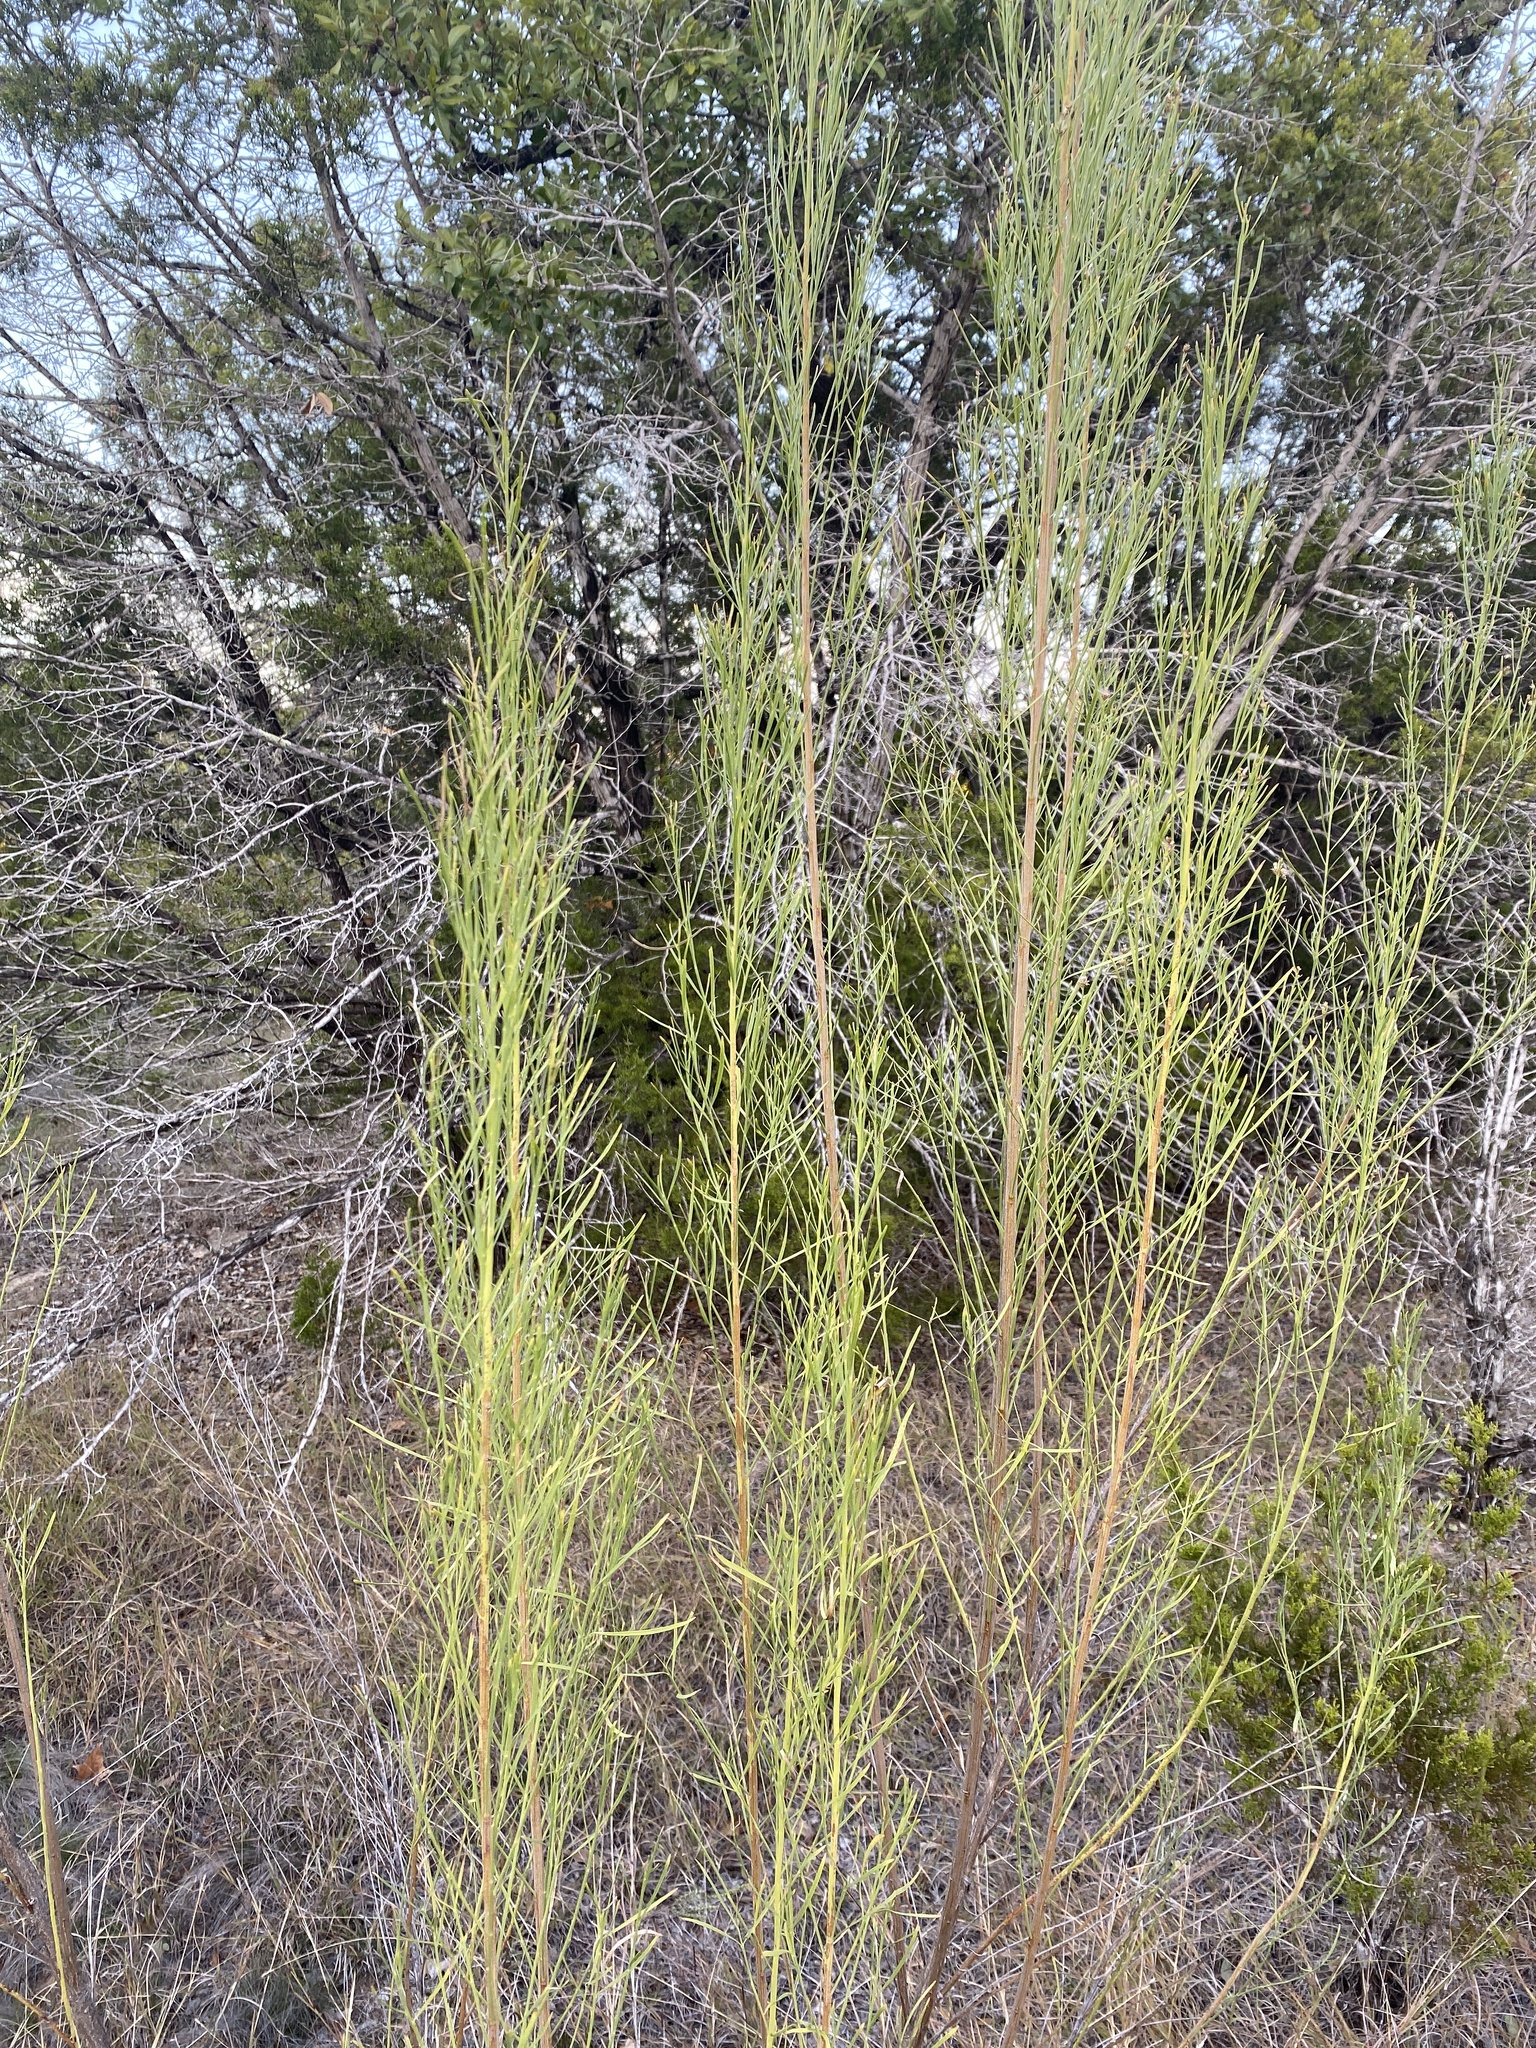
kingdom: Plantae
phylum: Tracheophyta
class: Magnoliopsida
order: Asterales
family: Asteraceae
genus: Baccharis
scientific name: Baccharis neglecta
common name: Roosevelt-weed
